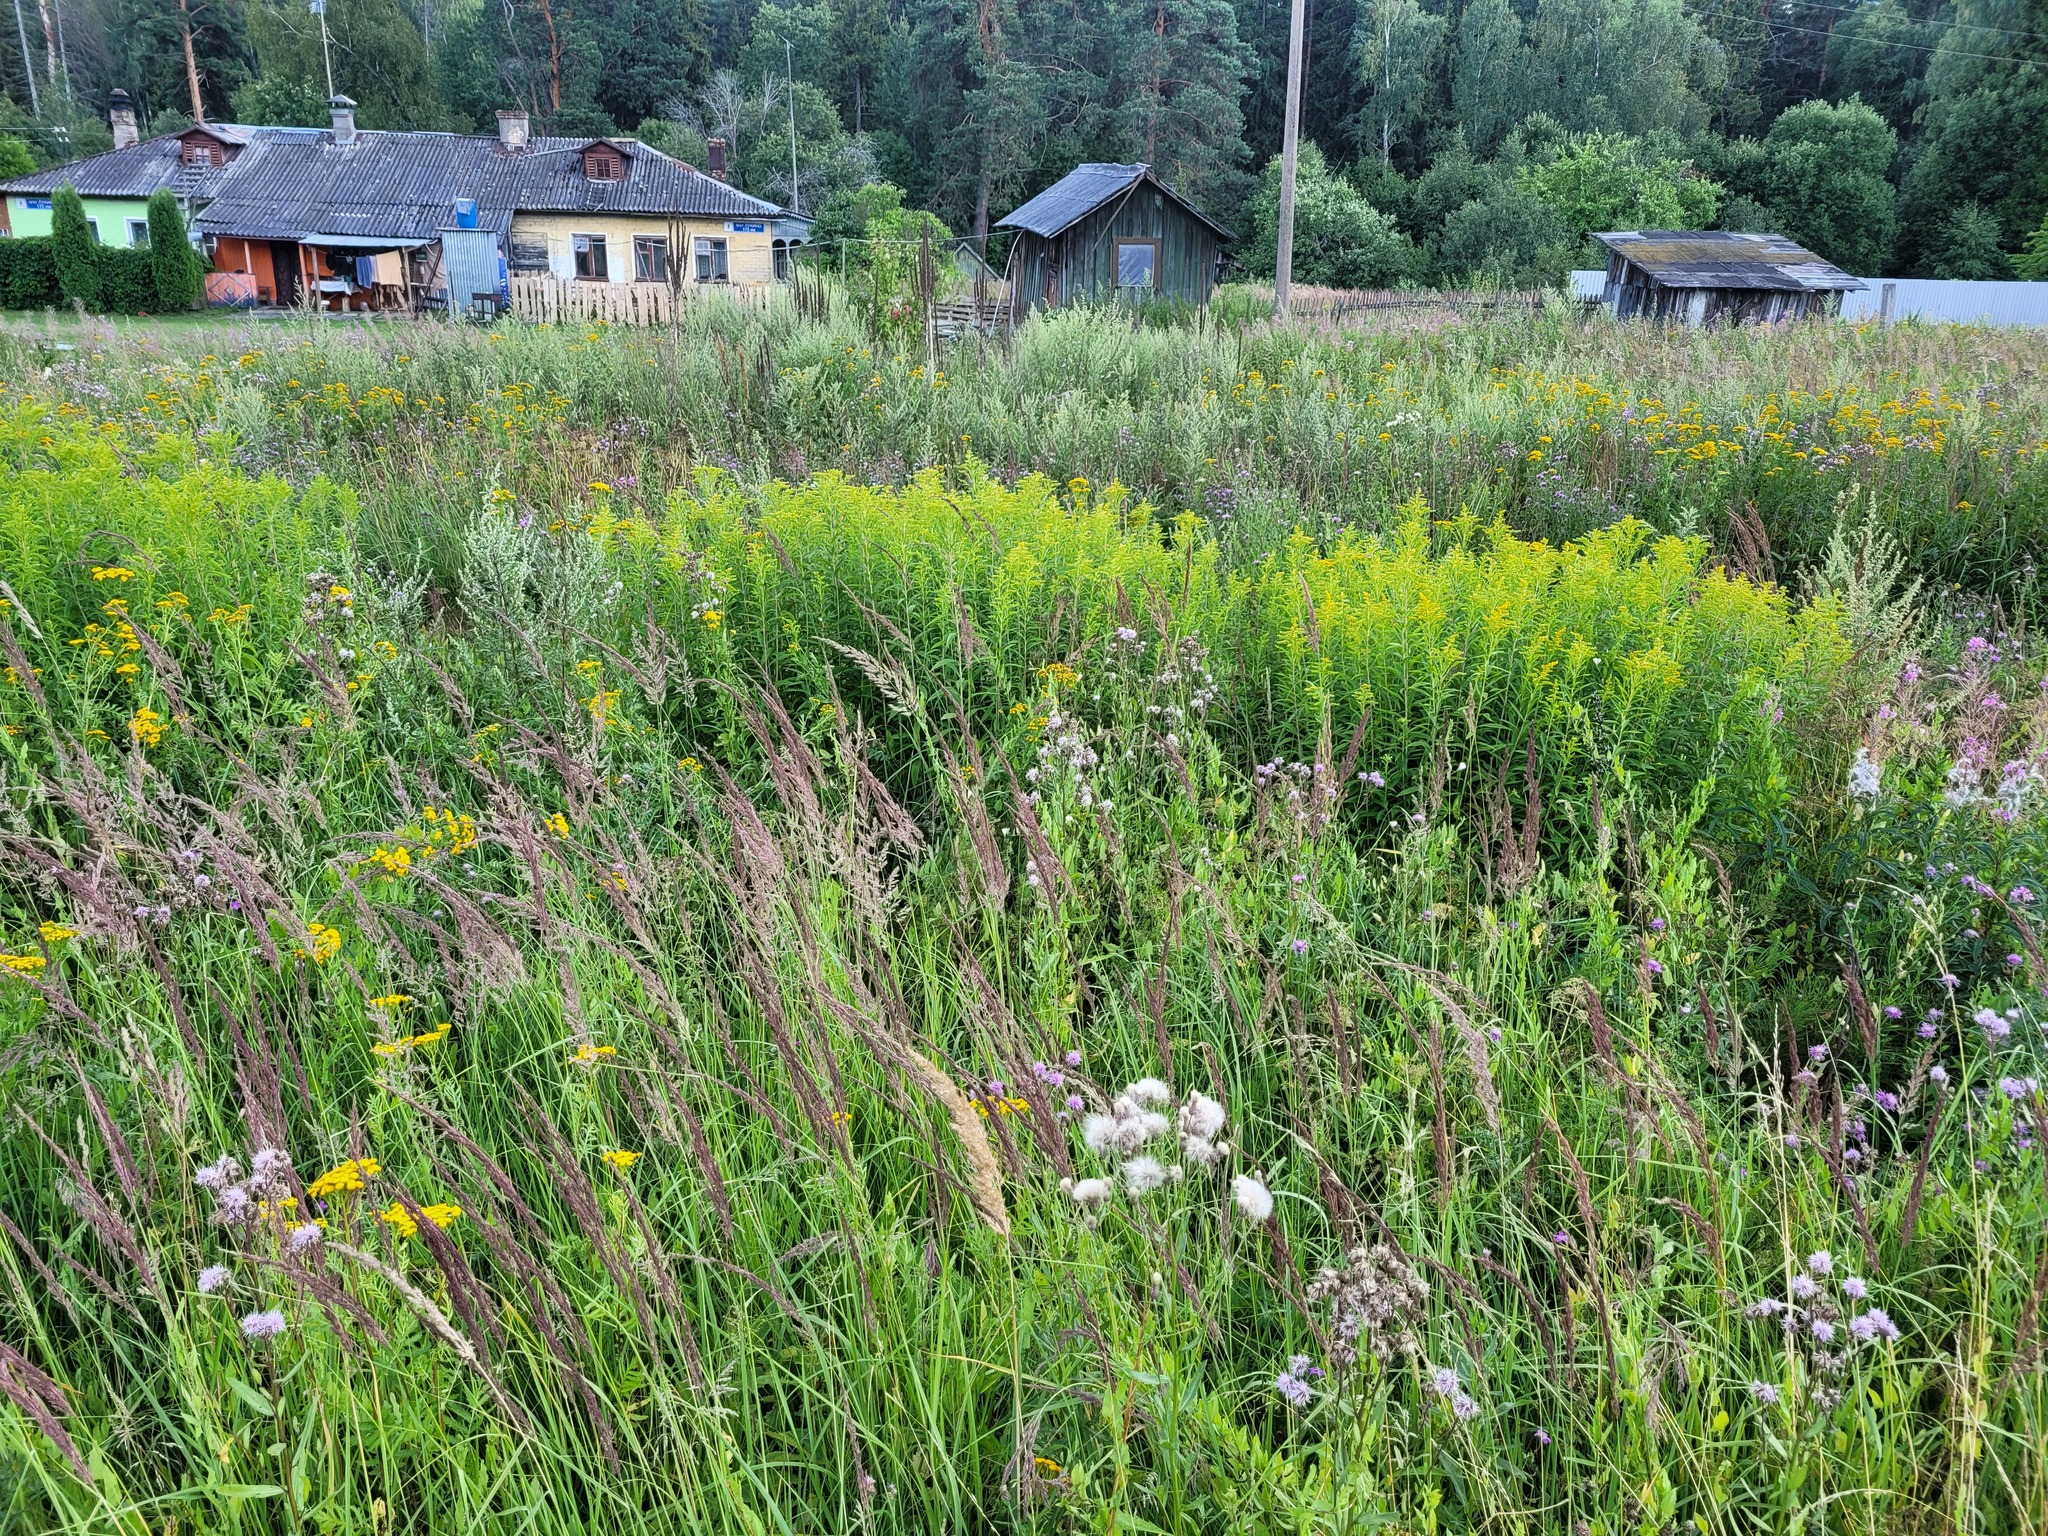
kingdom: Plantae
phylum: Tracheophyta
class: Magnoliopsida
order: Asterales
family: Asteraceae
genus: Solidago
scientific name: Solidago gigantea
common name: Giant goldenrod
